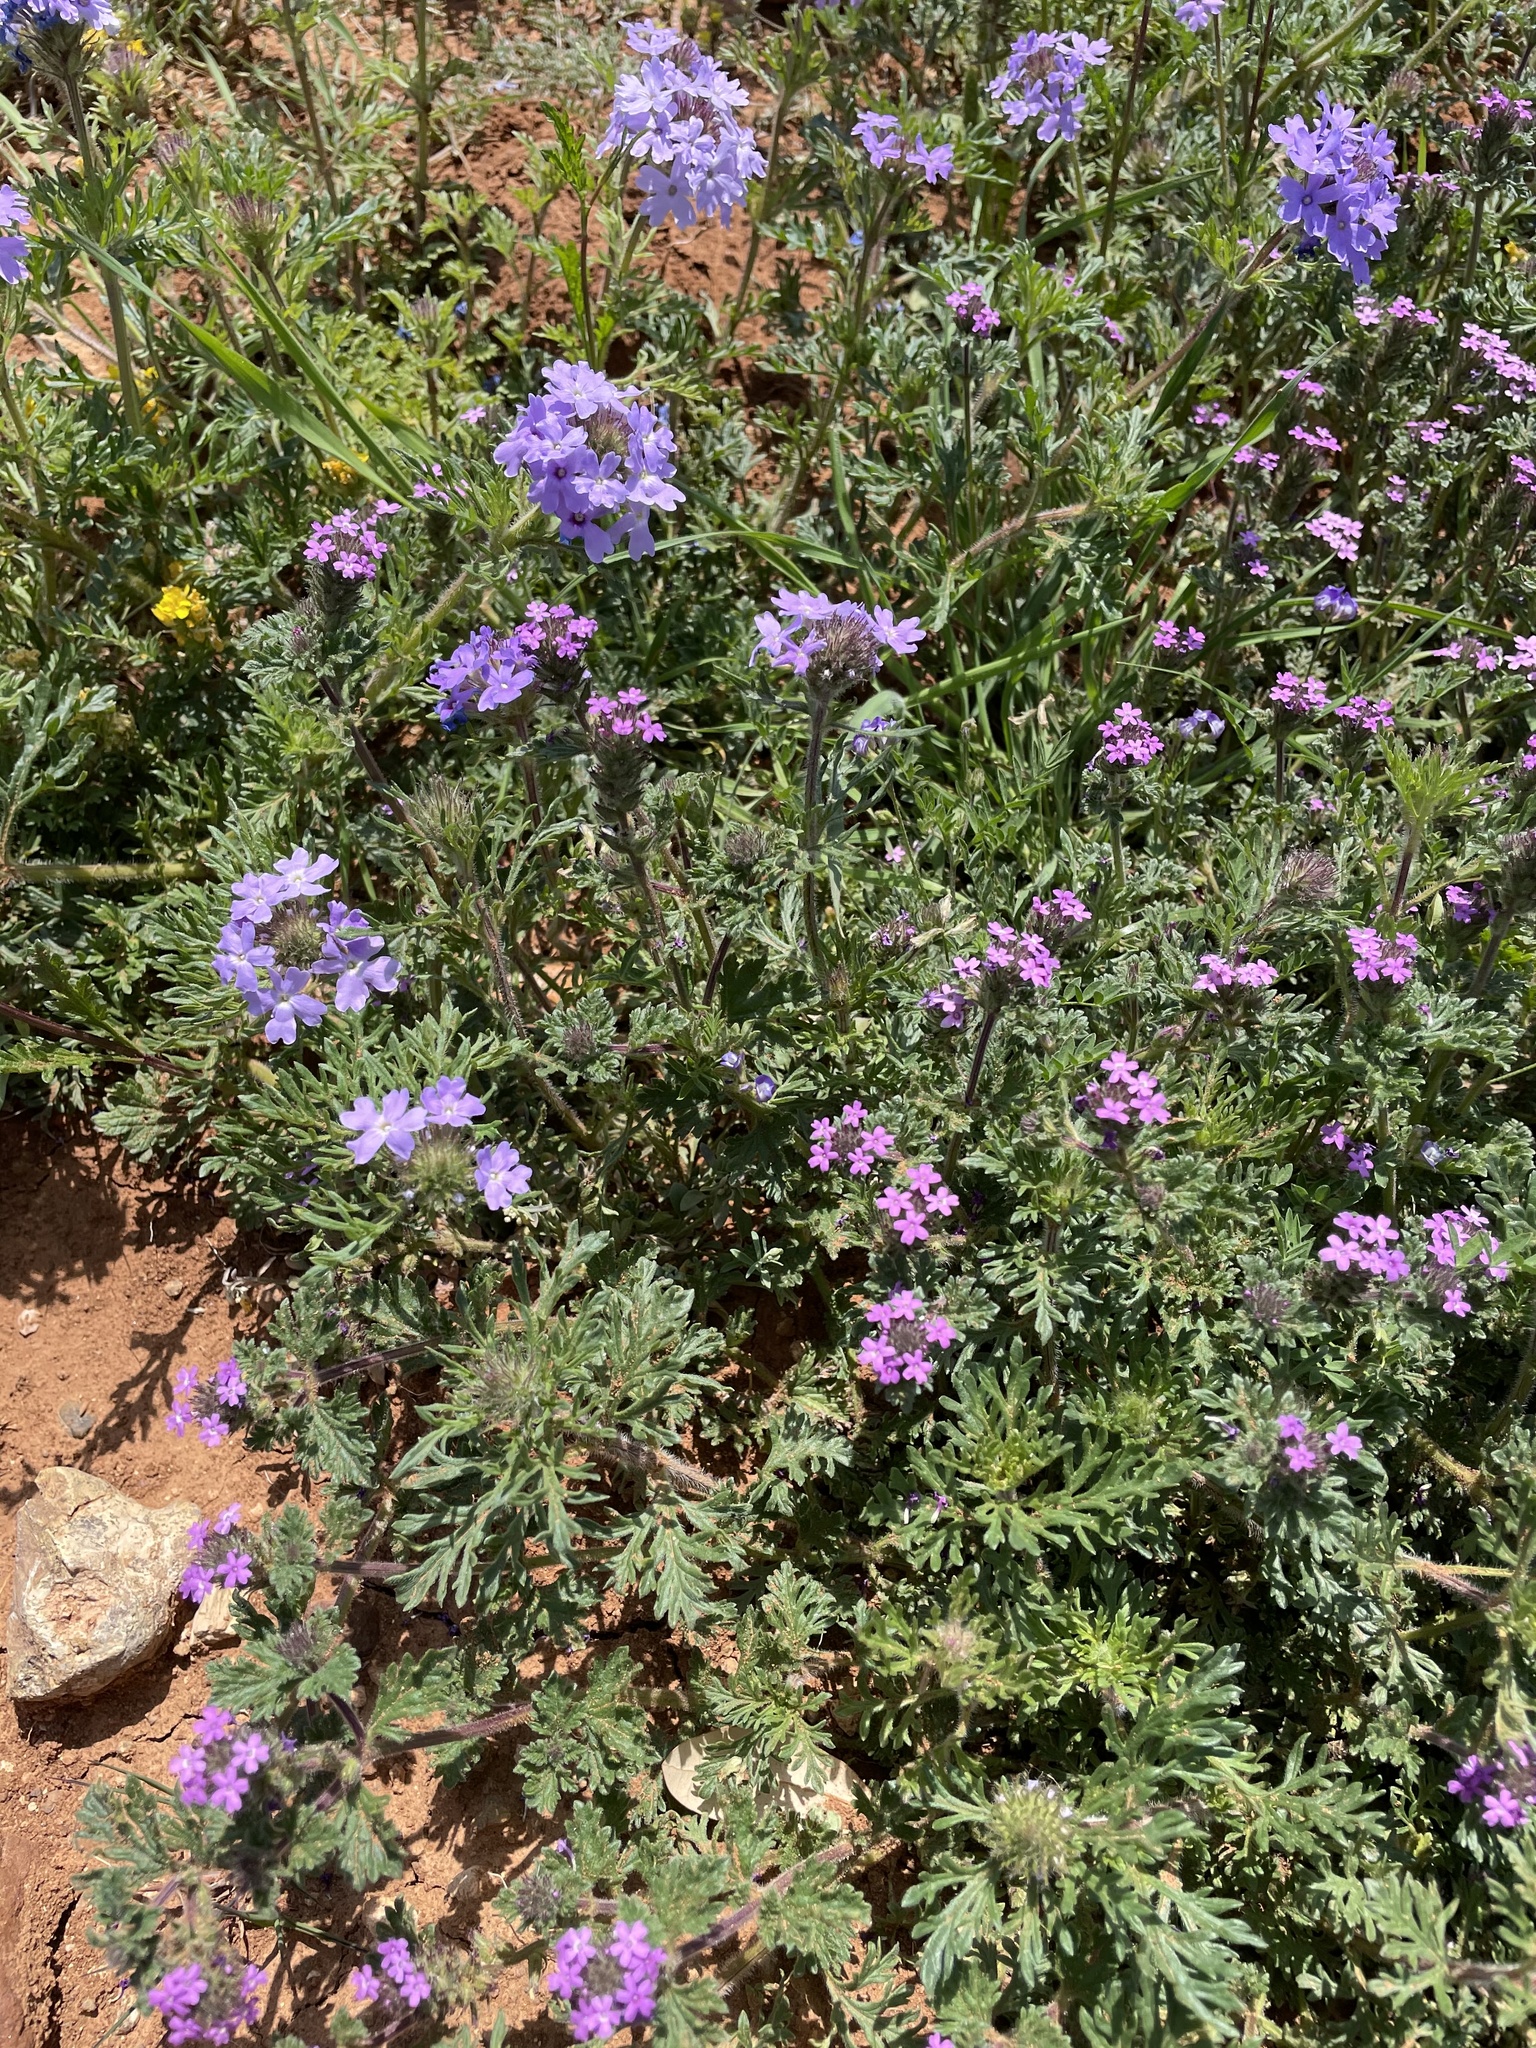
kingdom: Plantae
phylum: Tracheophyta
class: Magnoliopsida
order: Lamiales
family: Verbenaceae
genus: Verbena
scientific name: Verbena bipinnatifida
